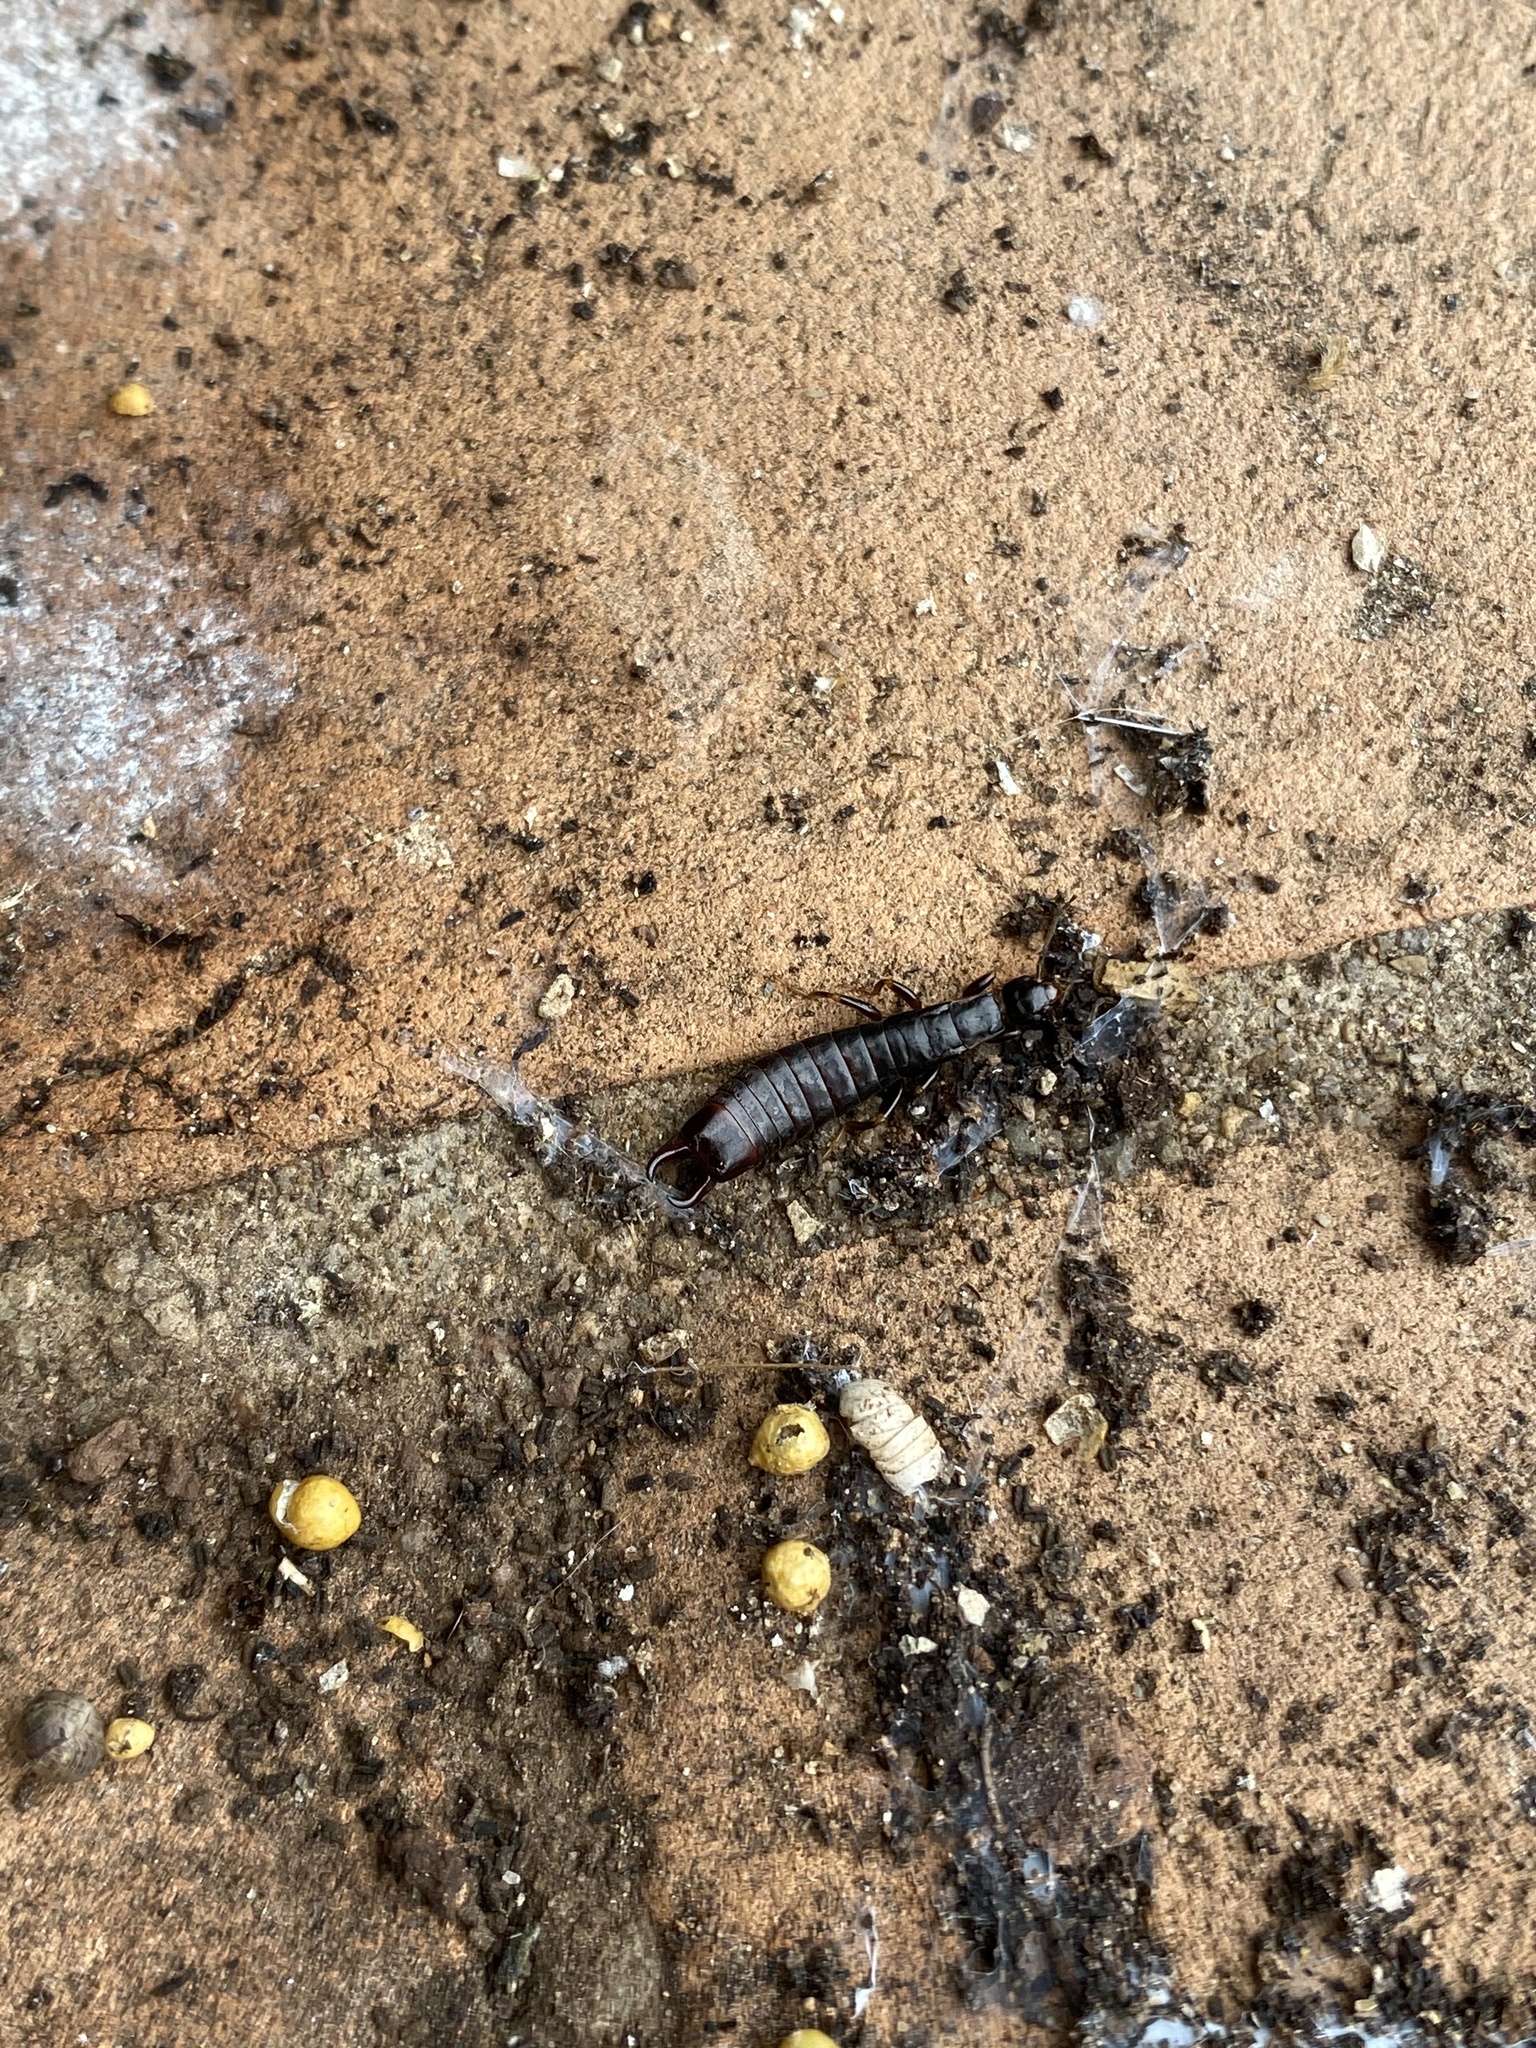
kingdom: Animalia
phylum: Arthropoda
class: Insecta
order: Dermaptera
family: Anisolabididae
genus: Euborellia
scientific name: Euborellia moesta
